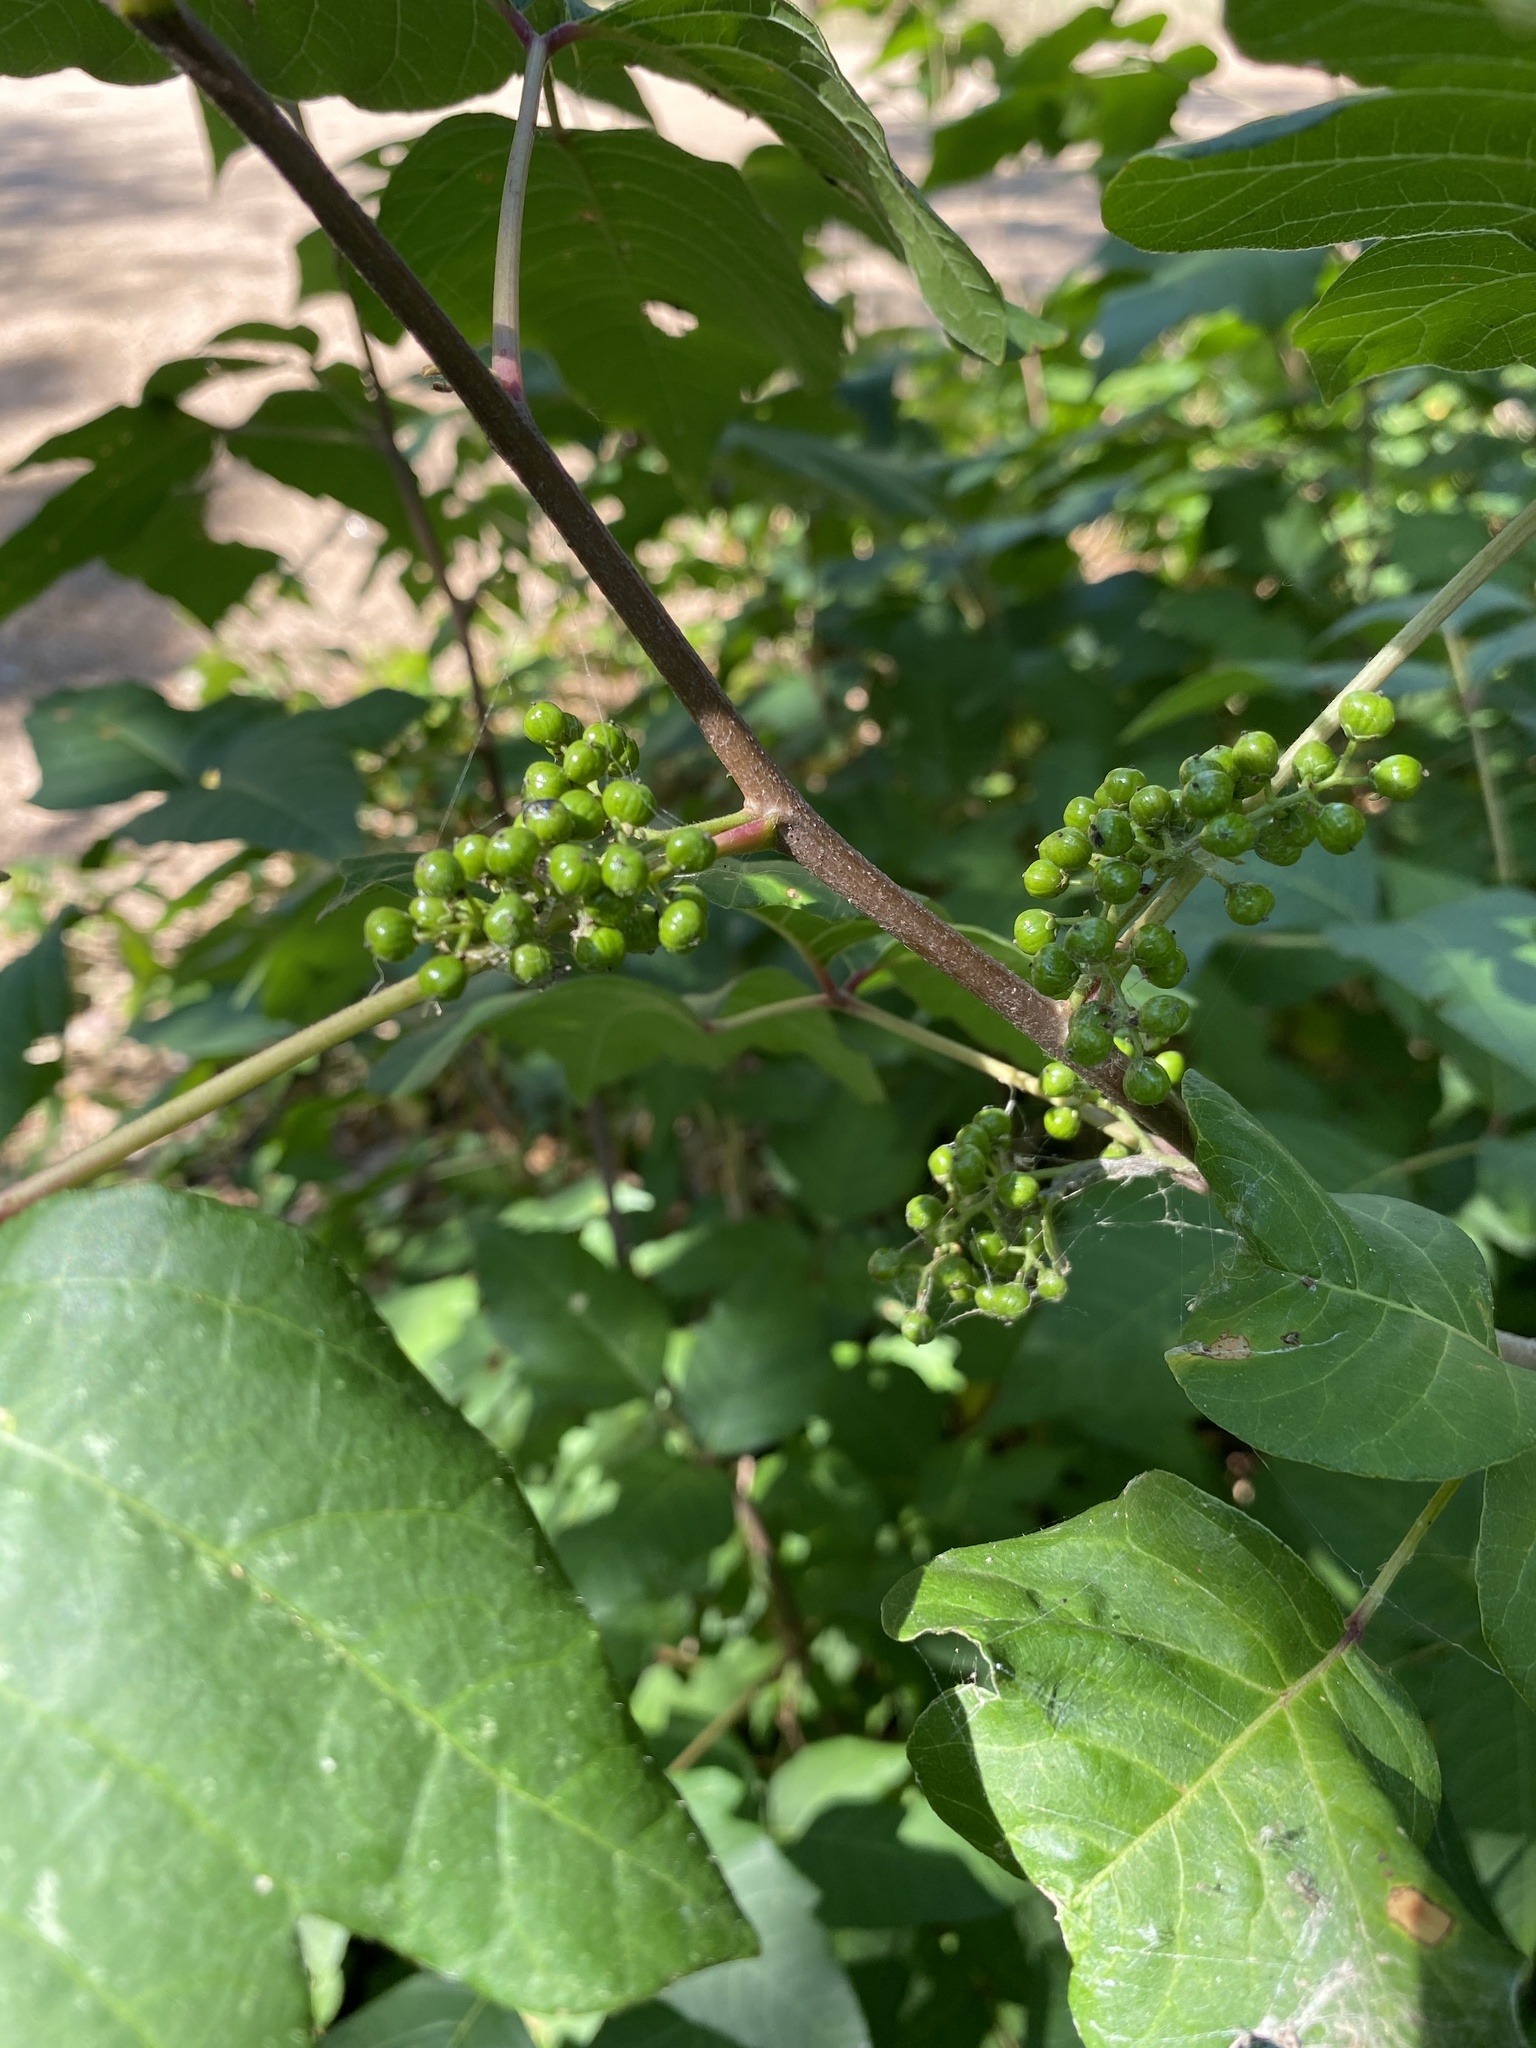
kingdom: Plantae
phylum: Tracheophyta
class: Magnoliopsida
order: Sapindales
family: Anacardiaceae
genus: Toxicodendron
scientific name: Toxicodendron radicans
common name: Poison ivy
